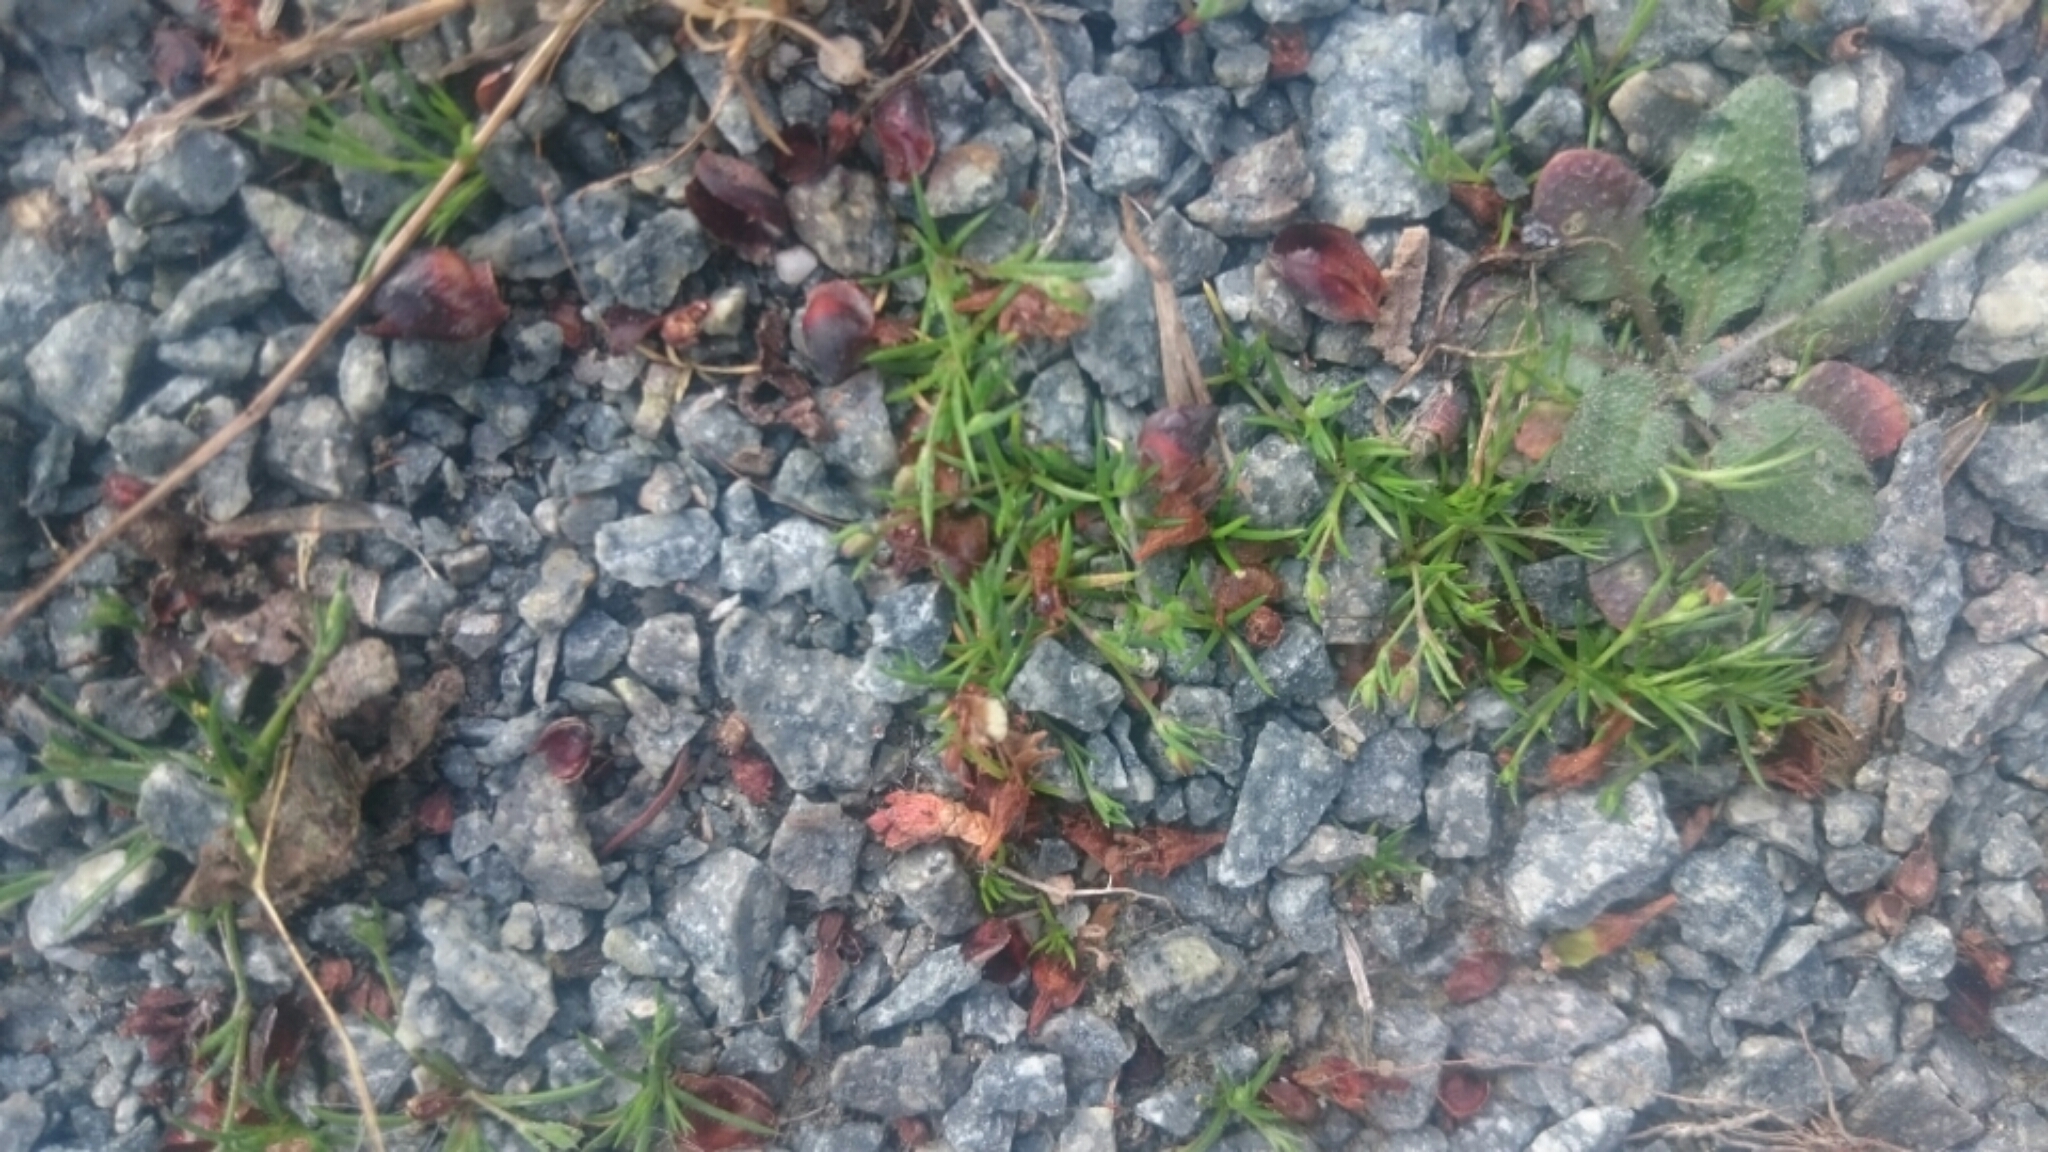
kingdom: Plantae
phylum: Tracheophyta
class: Magnoliopsida
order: Caryophyllales
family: Caryophyllaceae
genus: Sagina
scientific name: Sagina procumbens
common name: Procumbent pearlwort
